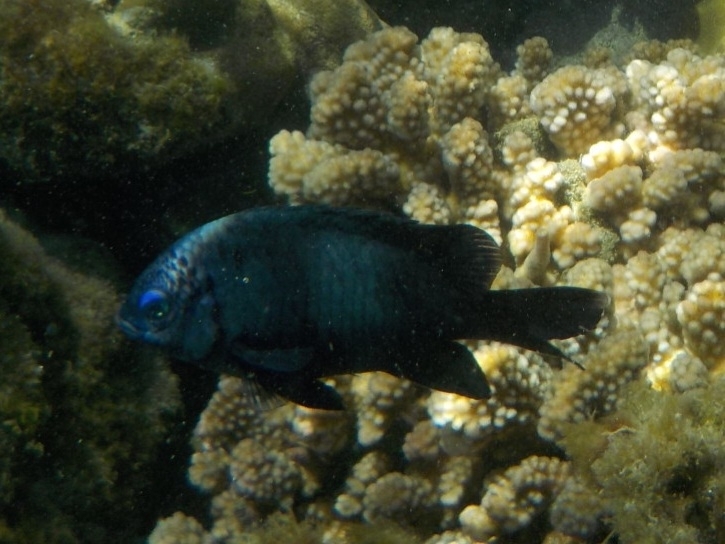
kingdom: Animalia
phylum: Chordata
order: Perciformes
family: Pomacentridae
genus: Stegastes
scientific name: Stegastes limbatus
